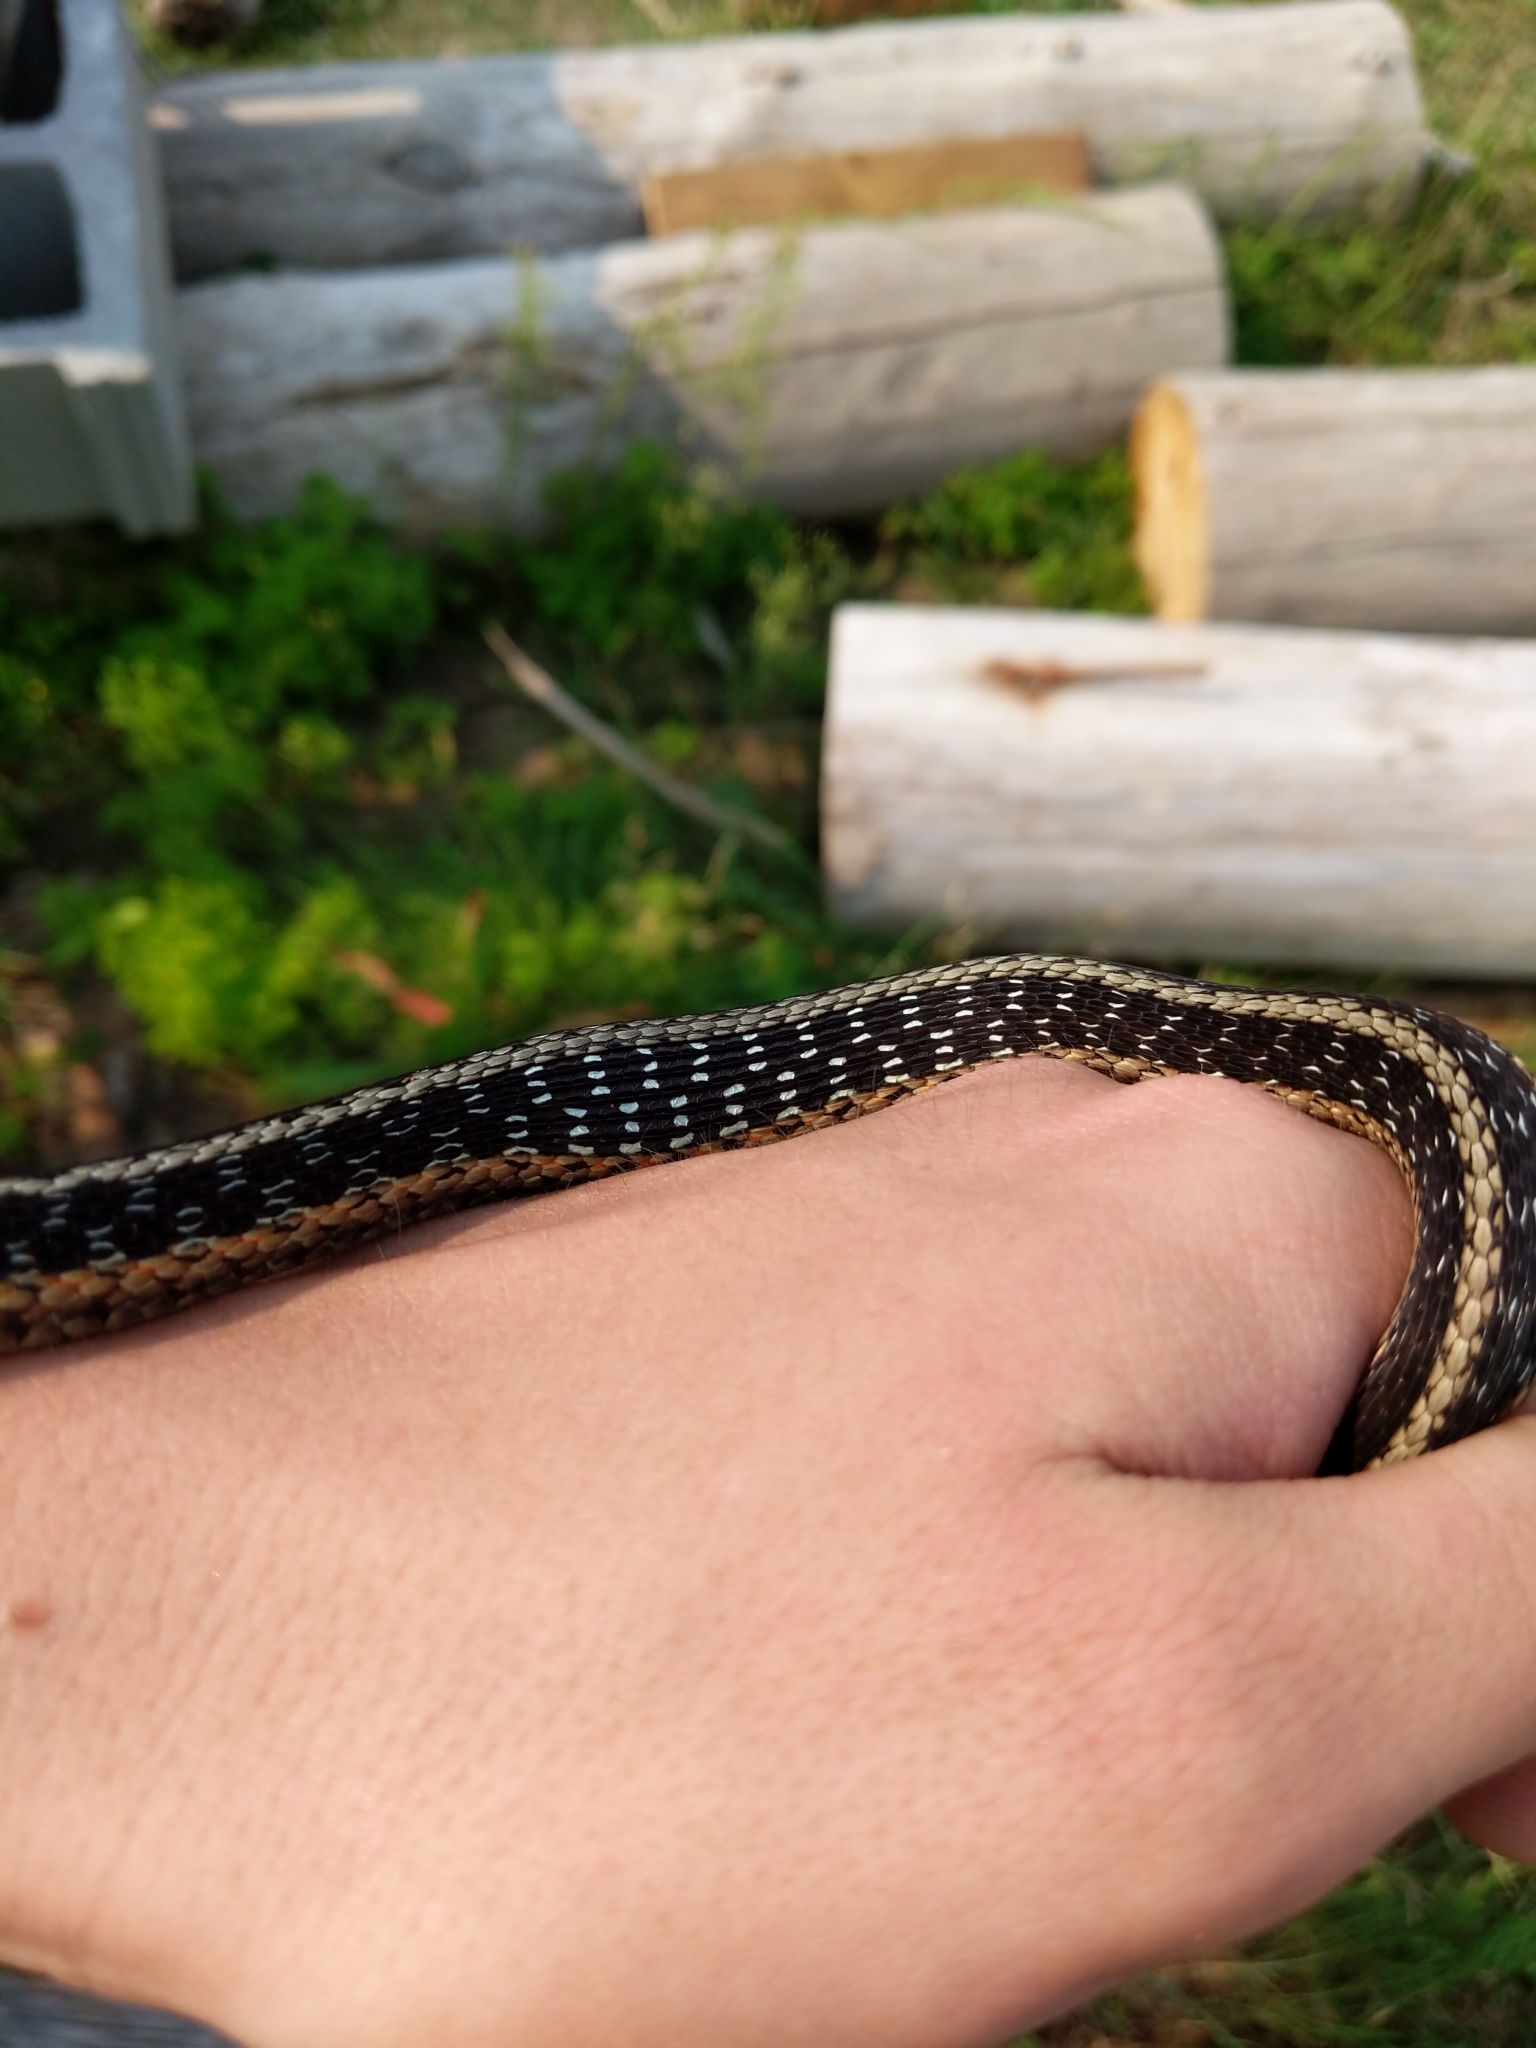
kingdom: Animalia
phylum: Chordata
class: Squamata
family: Colubridae
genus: Thamnophis
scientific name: Thamnophis sirtalis
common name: Common garter snake
